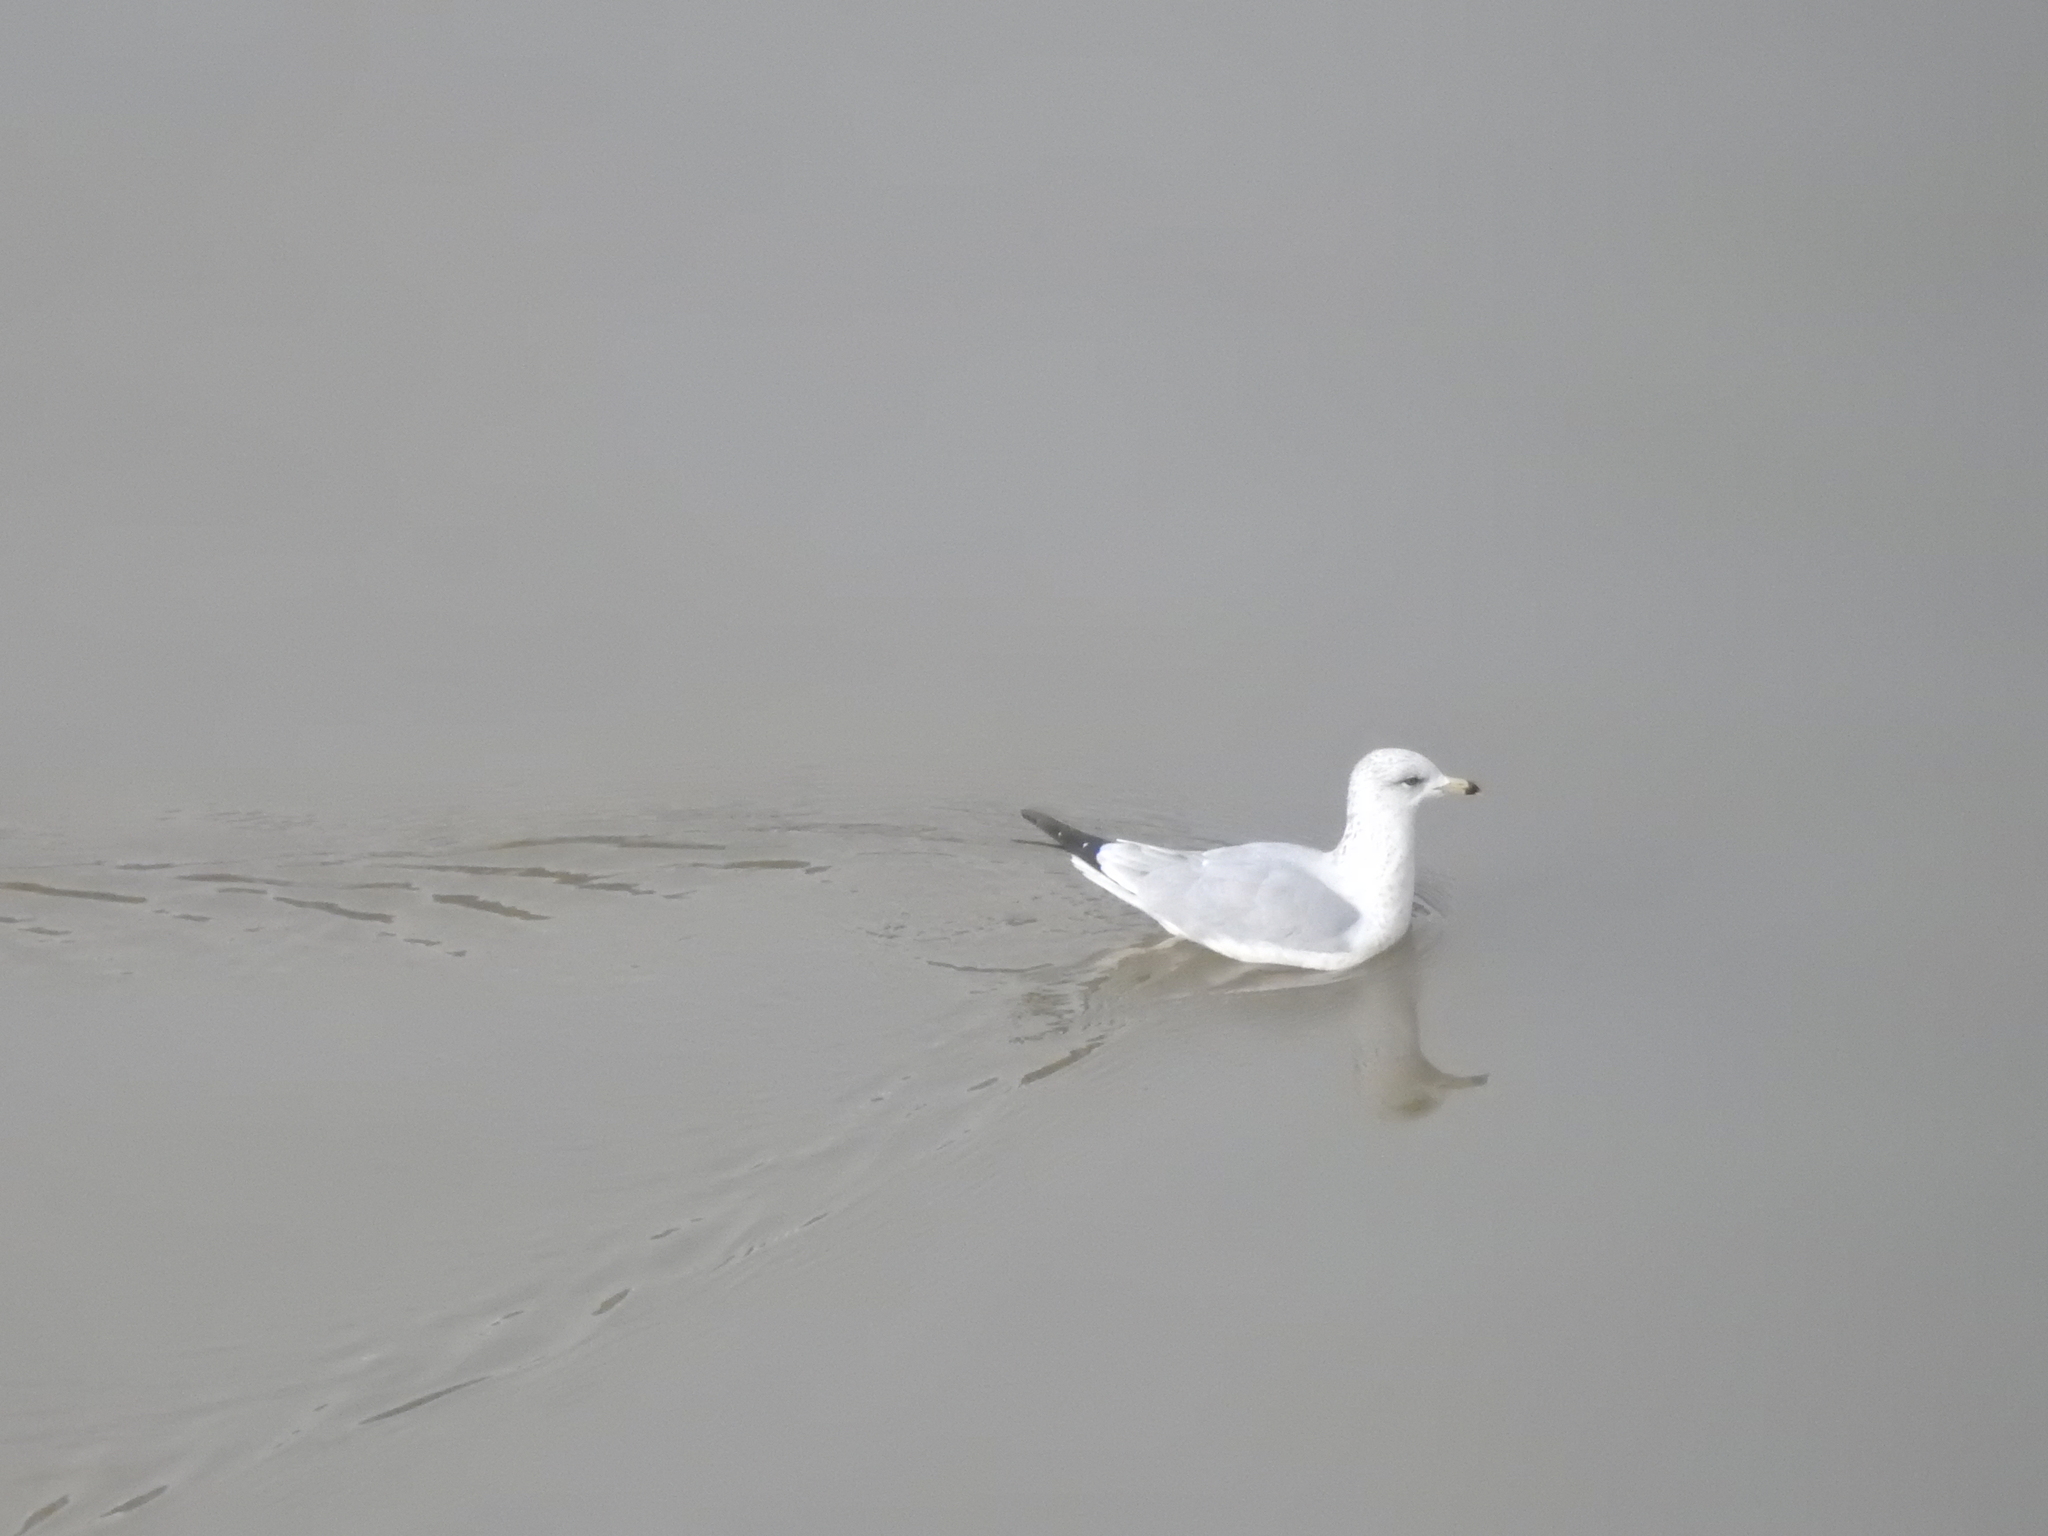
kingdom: Animalia
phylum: Chordata
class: Aves
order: Charadriiformes
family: Laridae
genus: Larus
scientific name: Larus delawarensis
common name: Ring-billed gull
